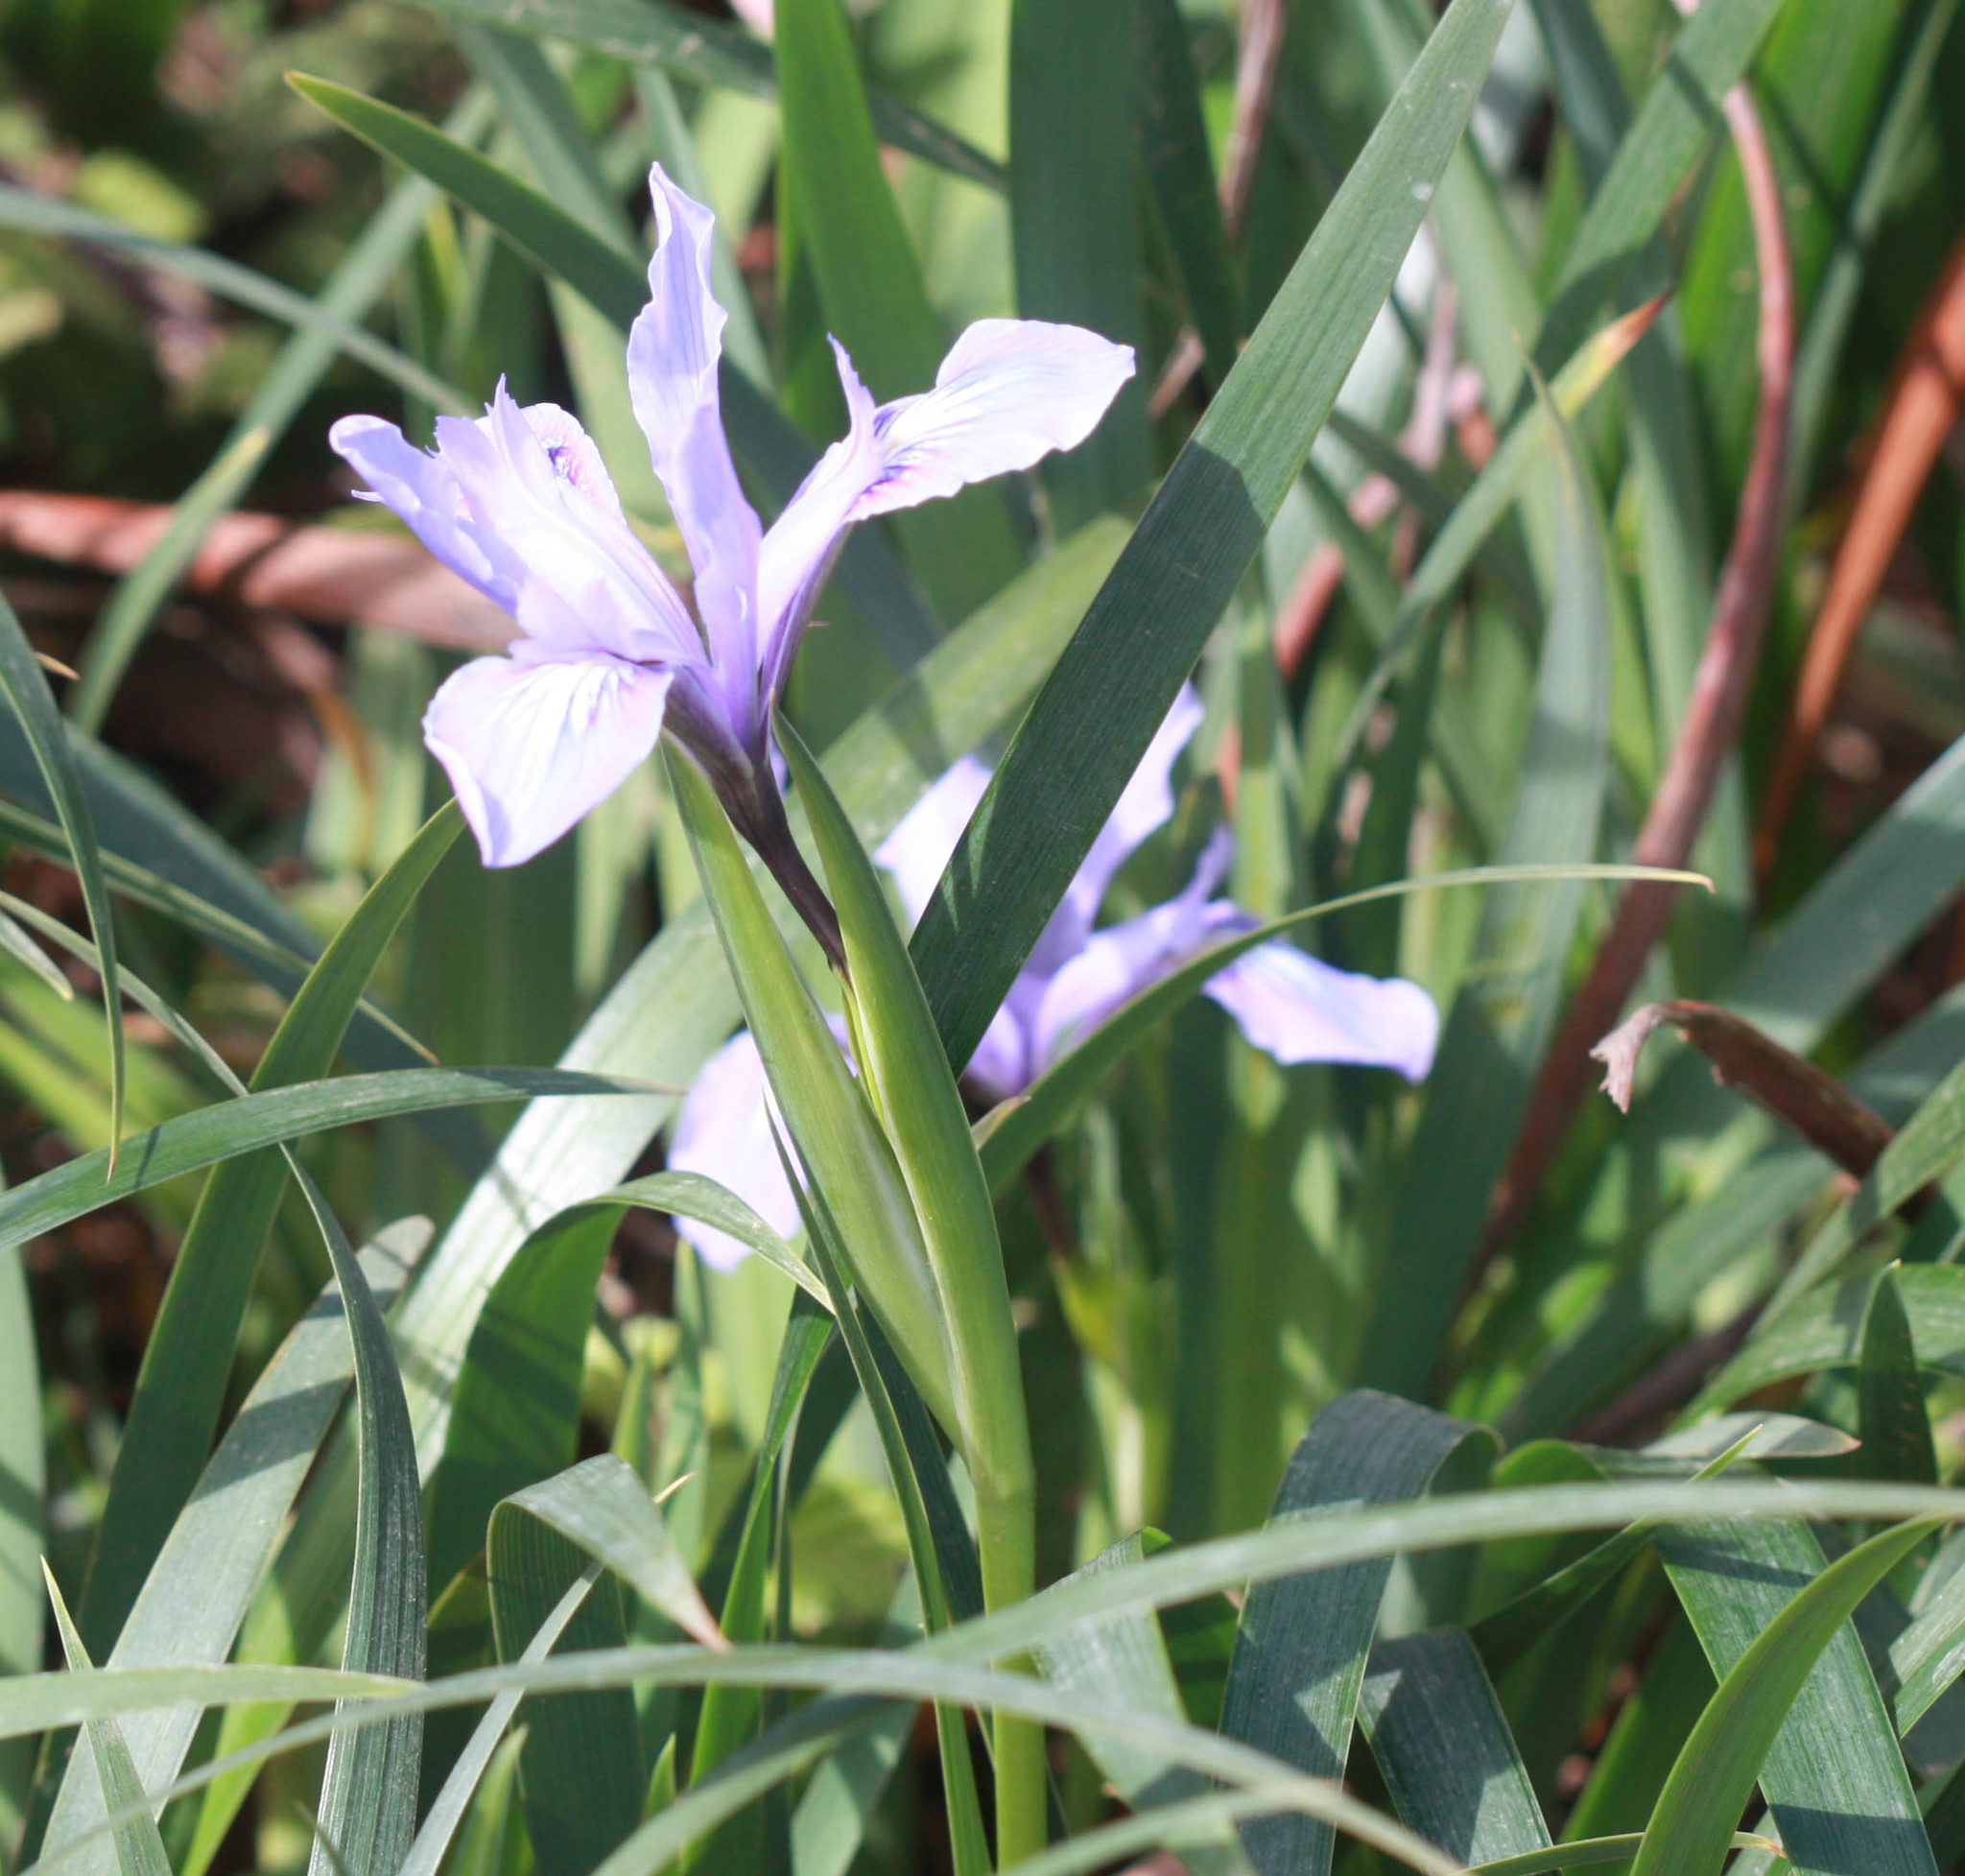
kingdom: Plantae
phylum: Tracheophyta
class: Liliopsida
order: Asparagales
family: Iridaceae
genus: Iris
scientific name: Iris douglasiana
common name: Marin iris
